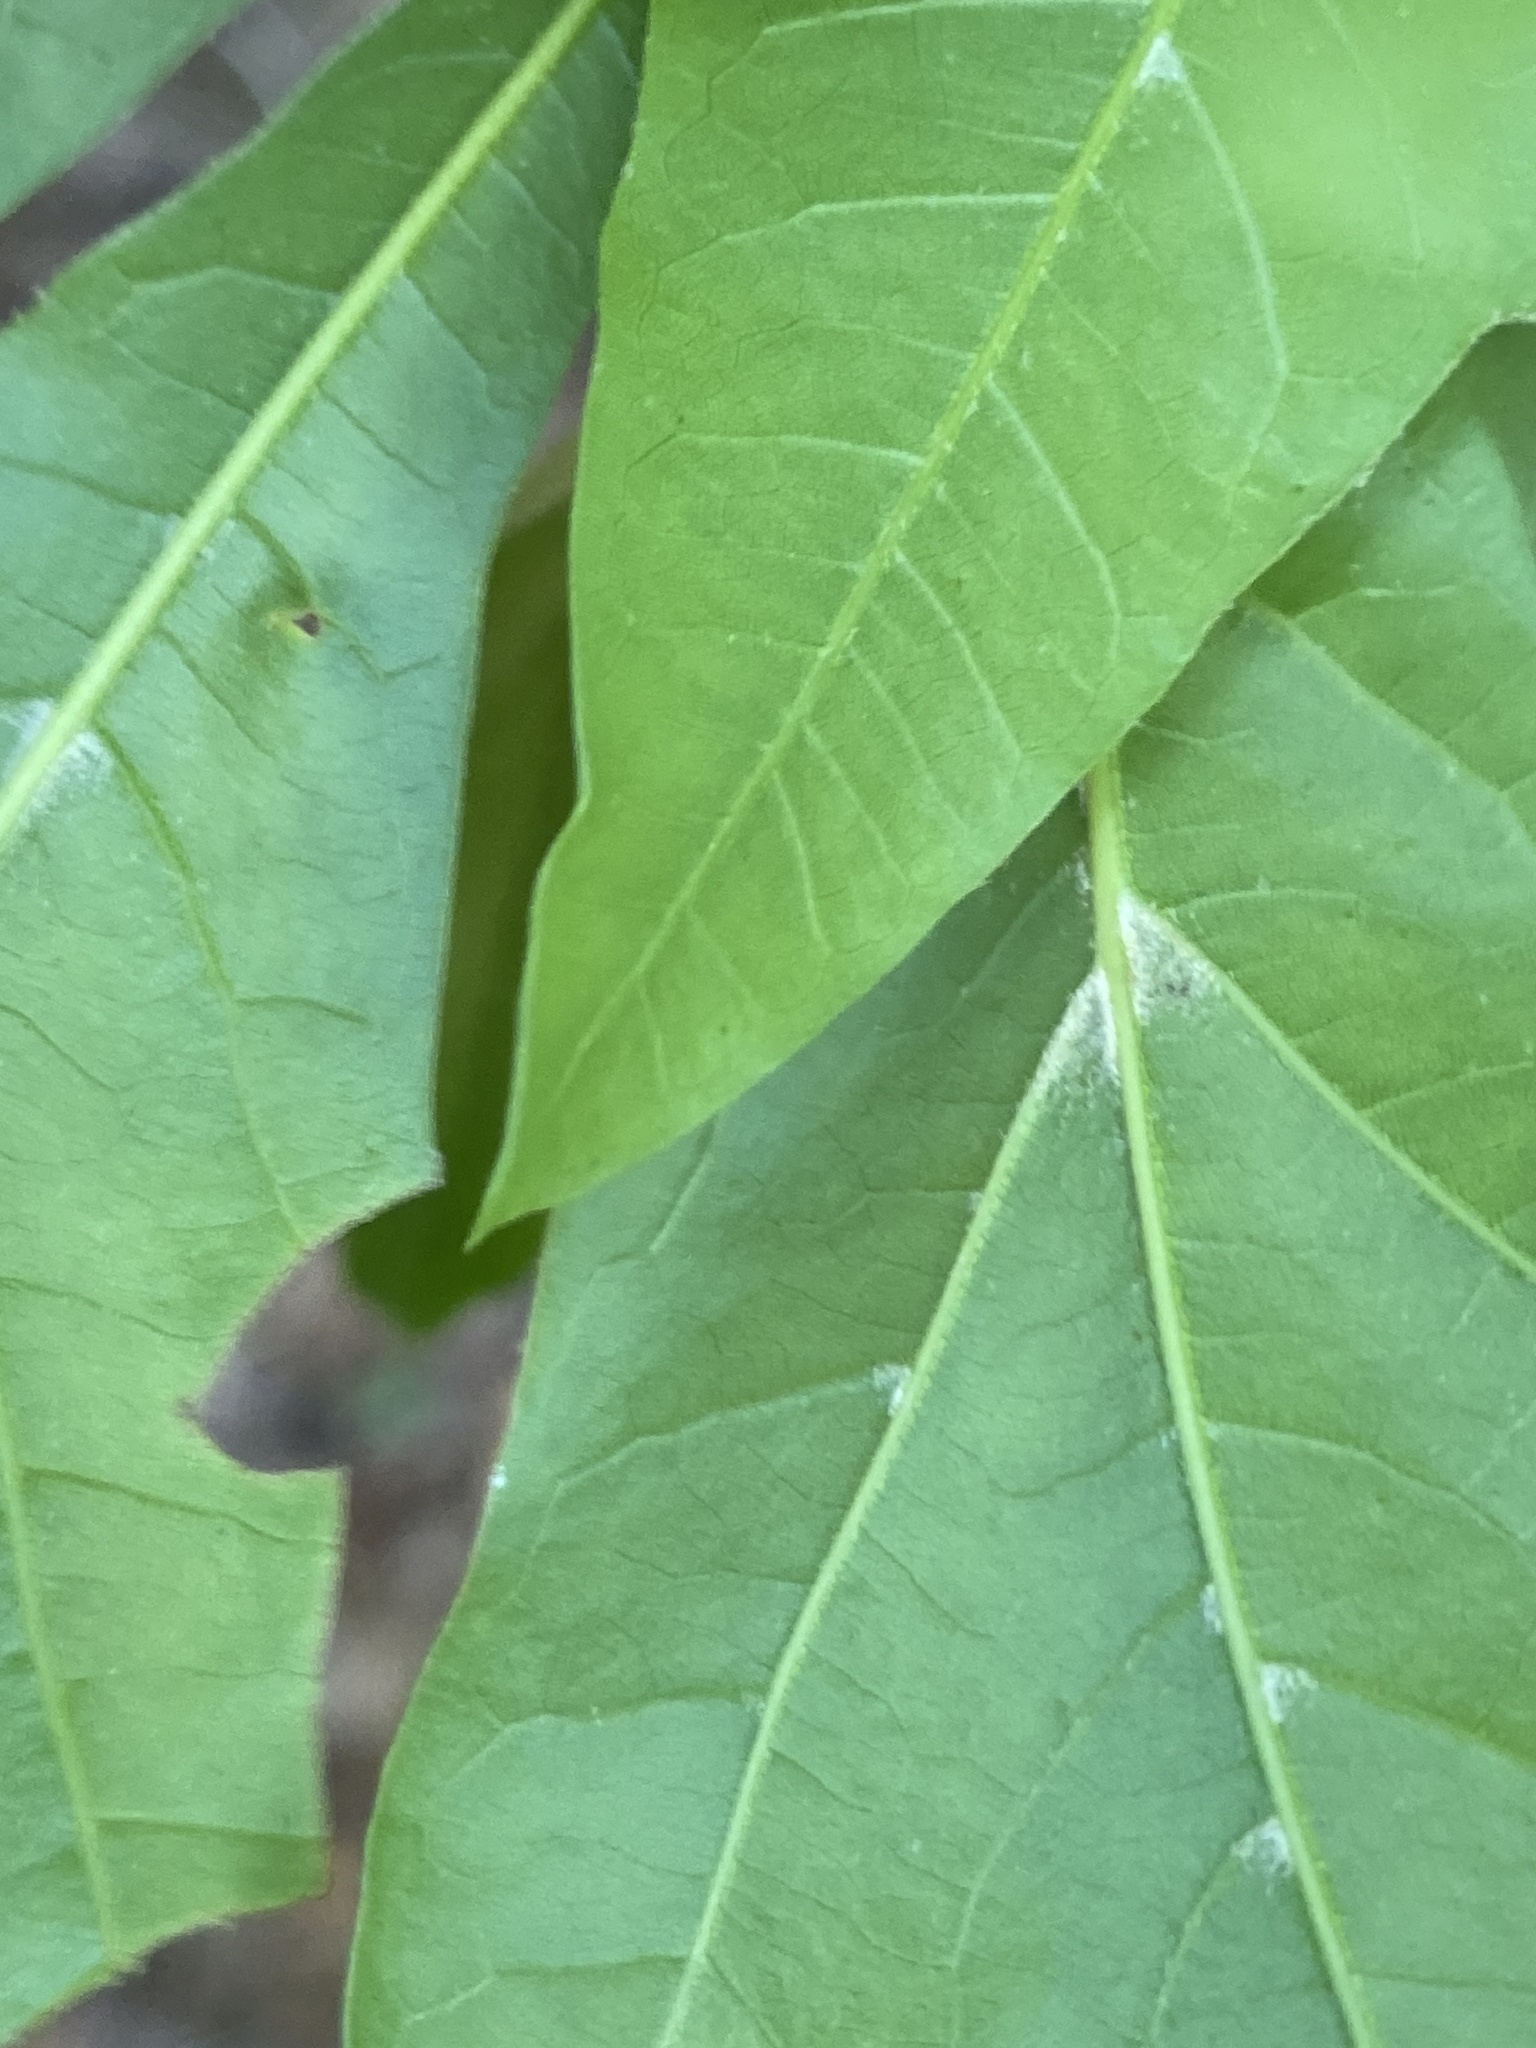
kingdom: Plantae
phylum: Tracheophyta
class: Magnoliopsida
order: Fagales
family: Fagaceae
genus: Quercus
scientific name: Quercus nigra
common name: Water oak
